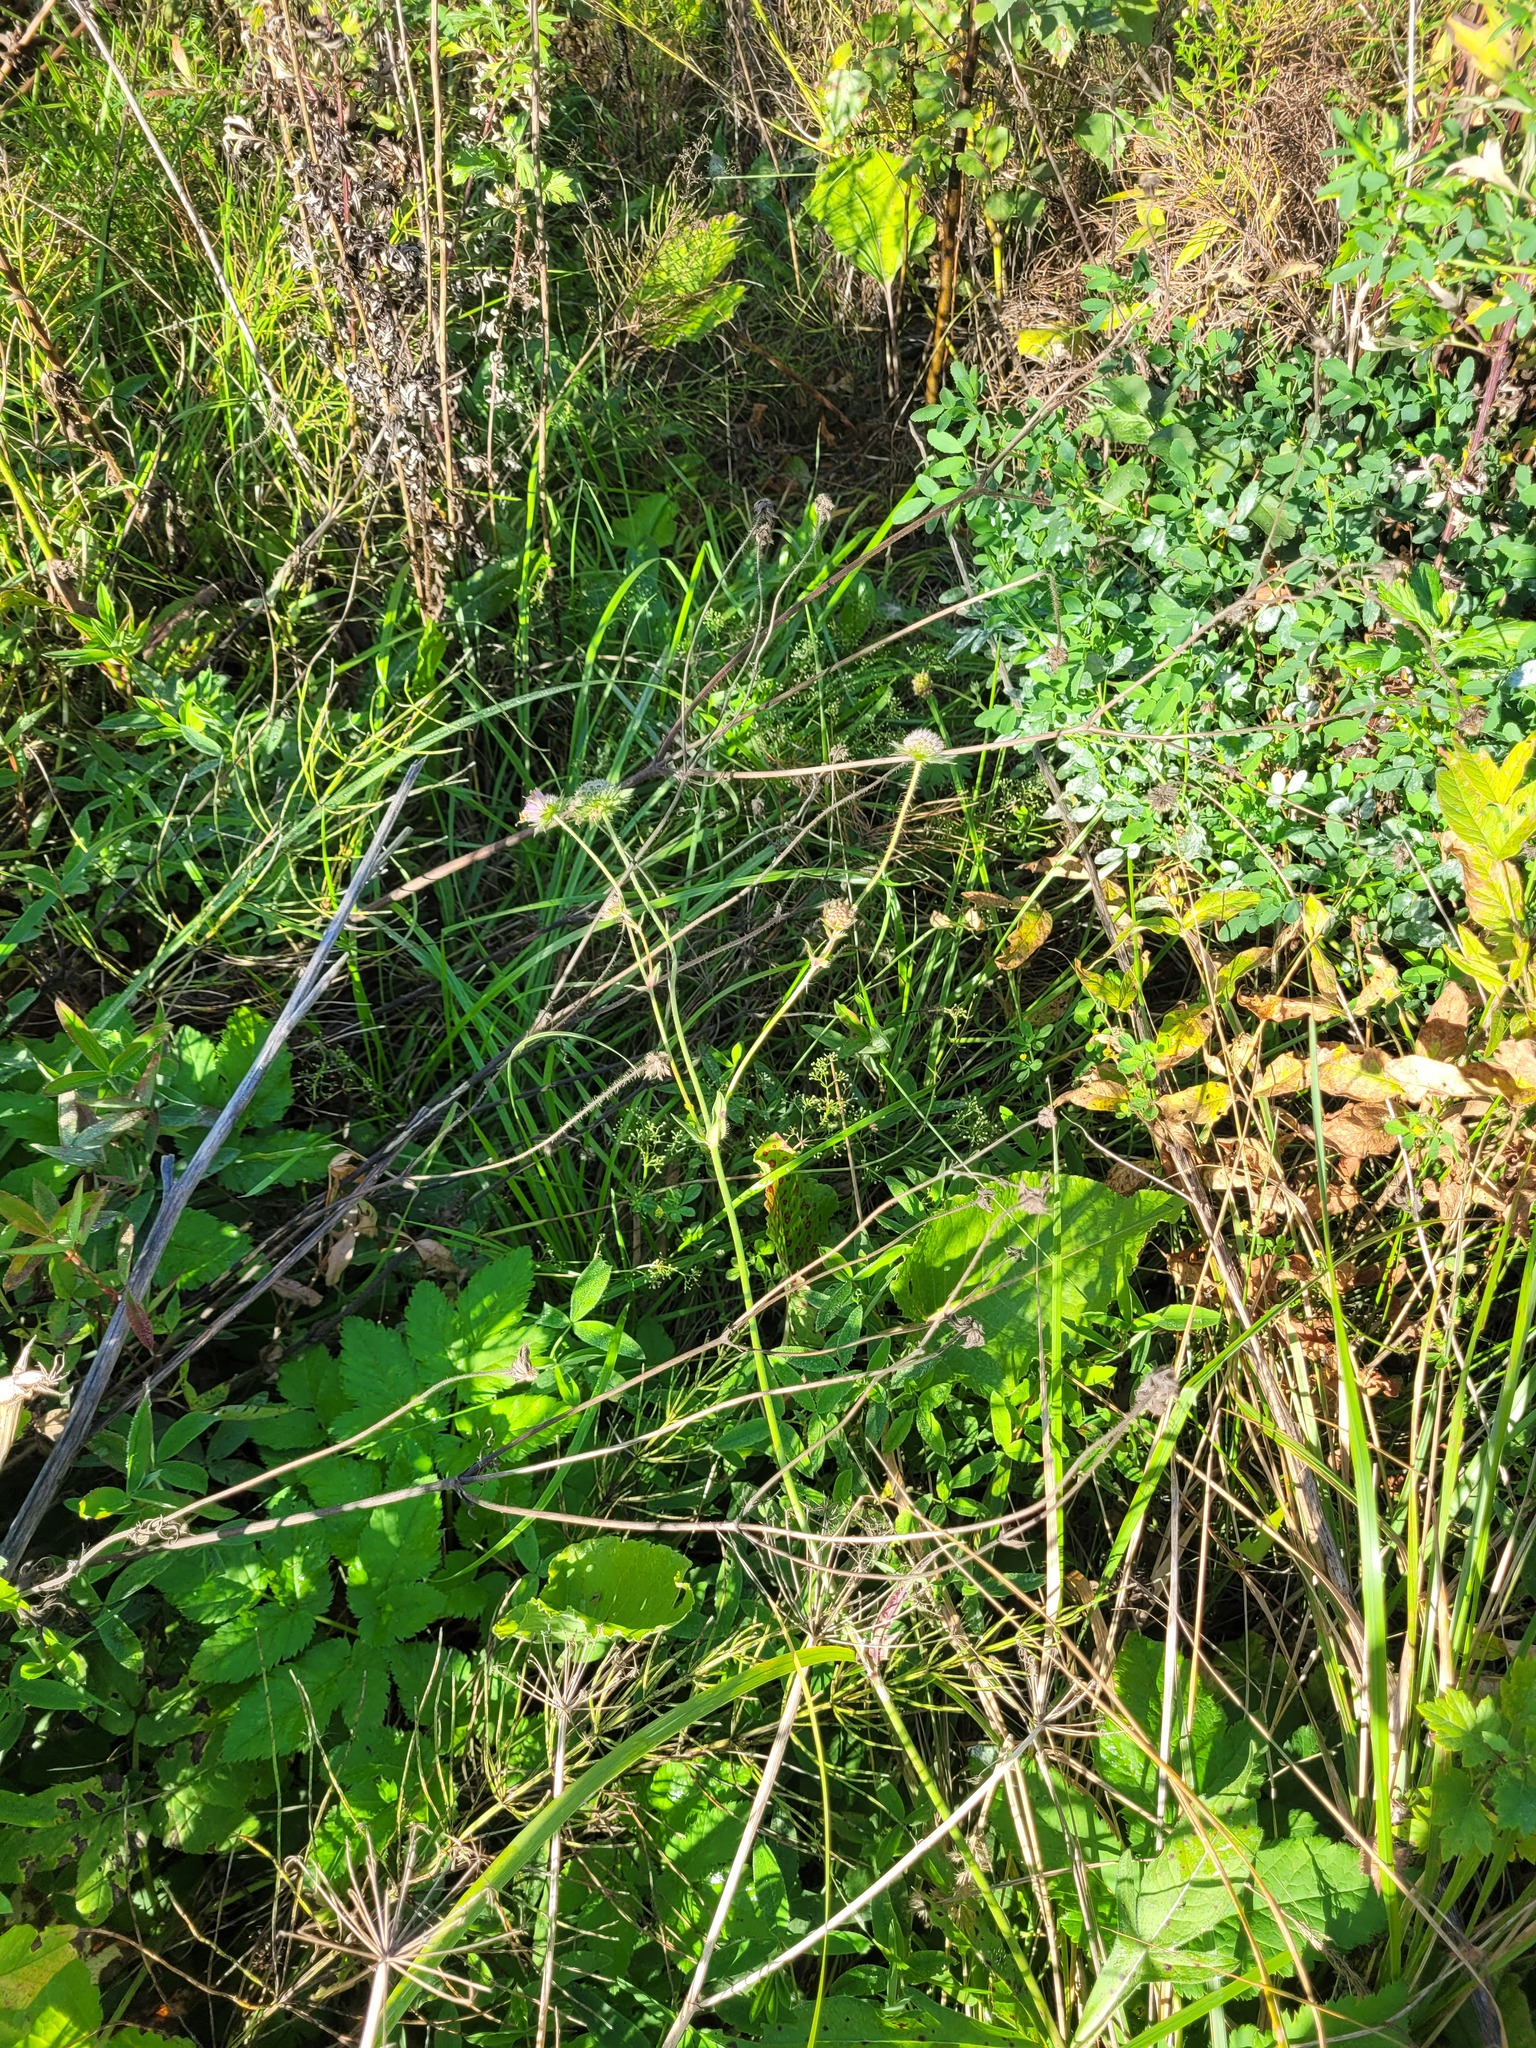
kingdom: Plantae
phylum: Tracheophyta
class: Magnoliopsida
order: Dipsacales
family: Caprifoliaceae
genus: Knautia
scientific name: Knautia arvensis
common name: Field scabiosa
